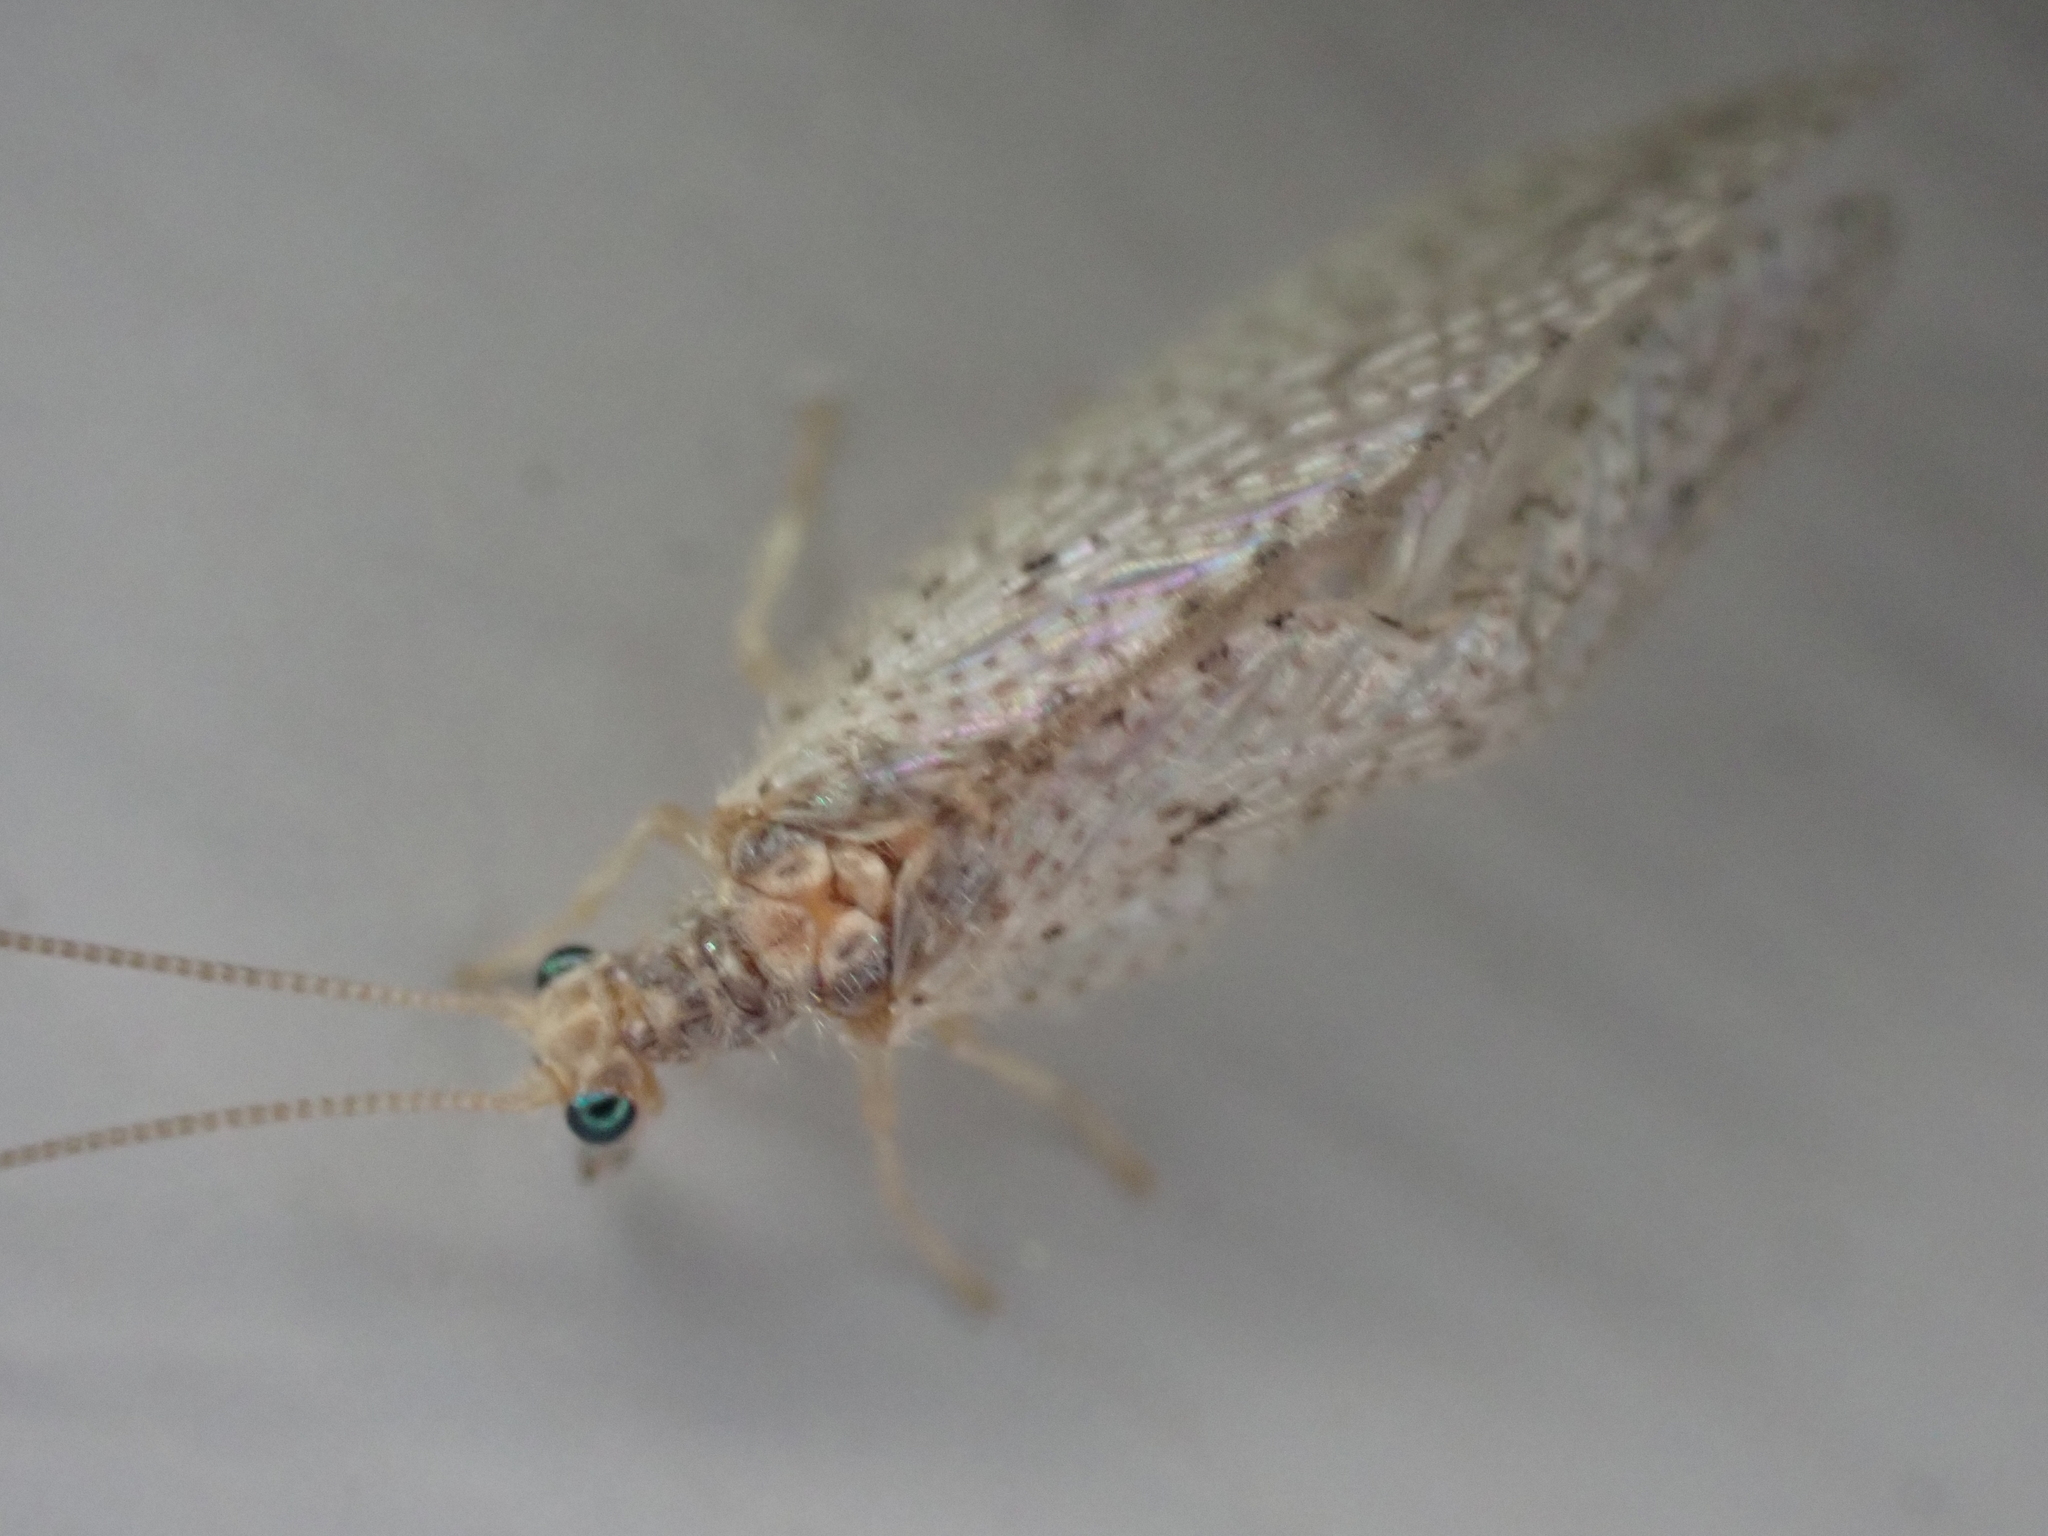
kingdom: Animalia
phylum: Arthropoda
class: Insecta
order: Neuroptera
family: Hemerobiidae
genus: Micromus
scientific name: Micromus subanticus
